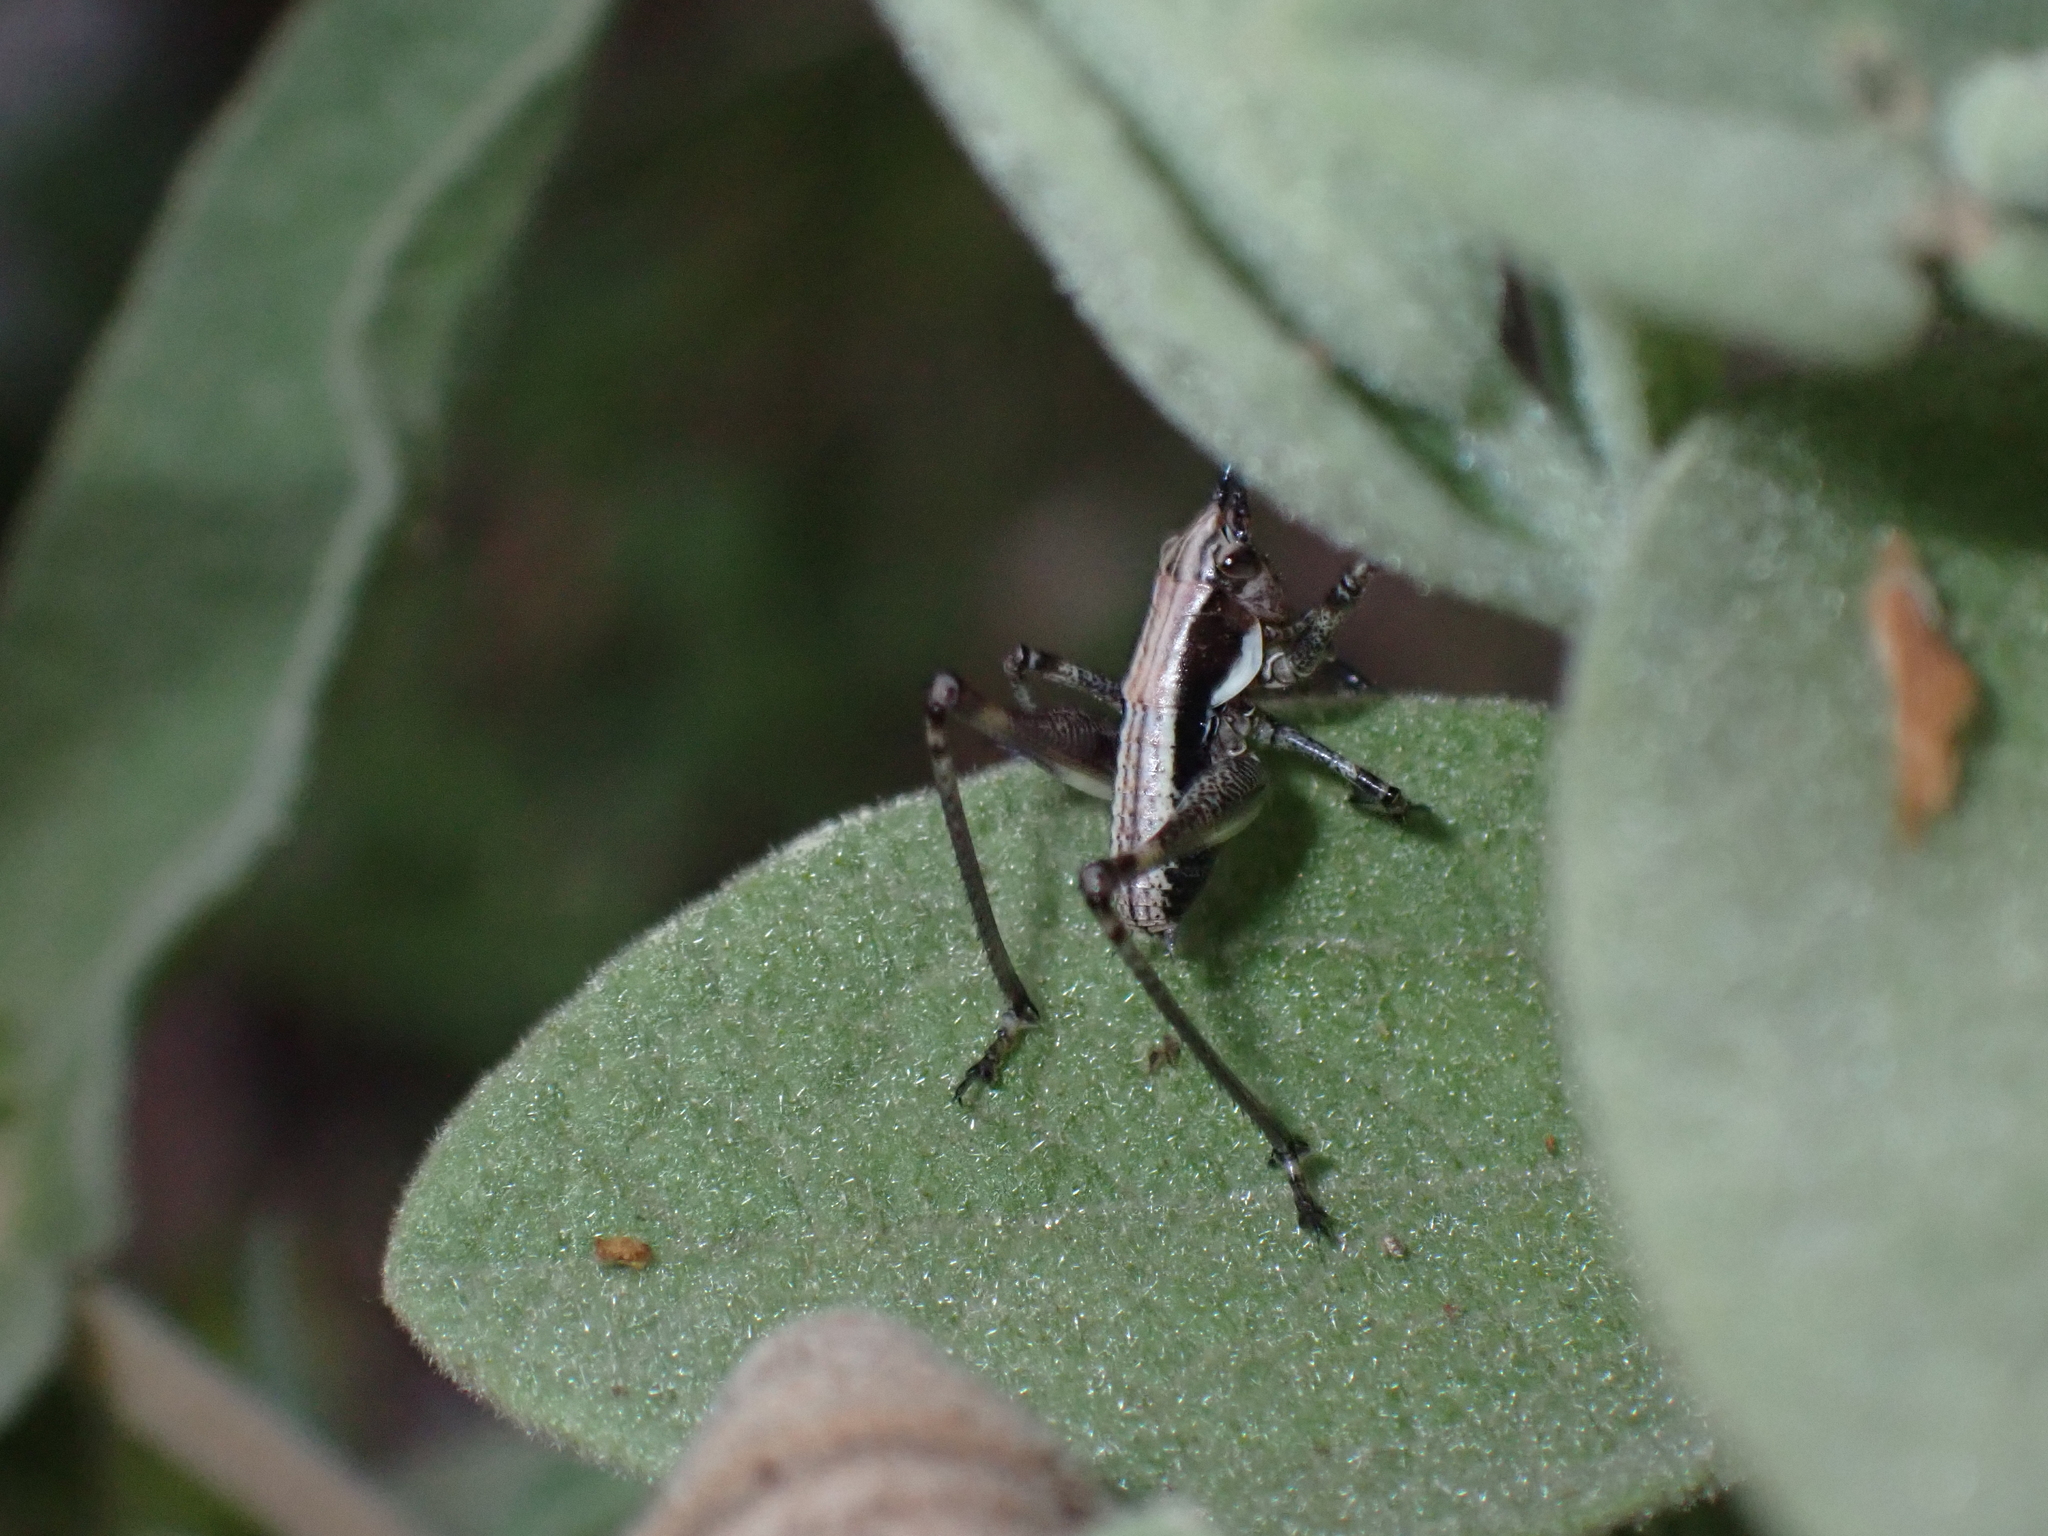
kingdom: Animalia
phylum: Arthropoda
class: Insecta
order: Orthoptera
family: Tettigoniidae
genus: Antaxius
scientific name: Antaxius pedestris
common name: Common mountain bush-cricket
